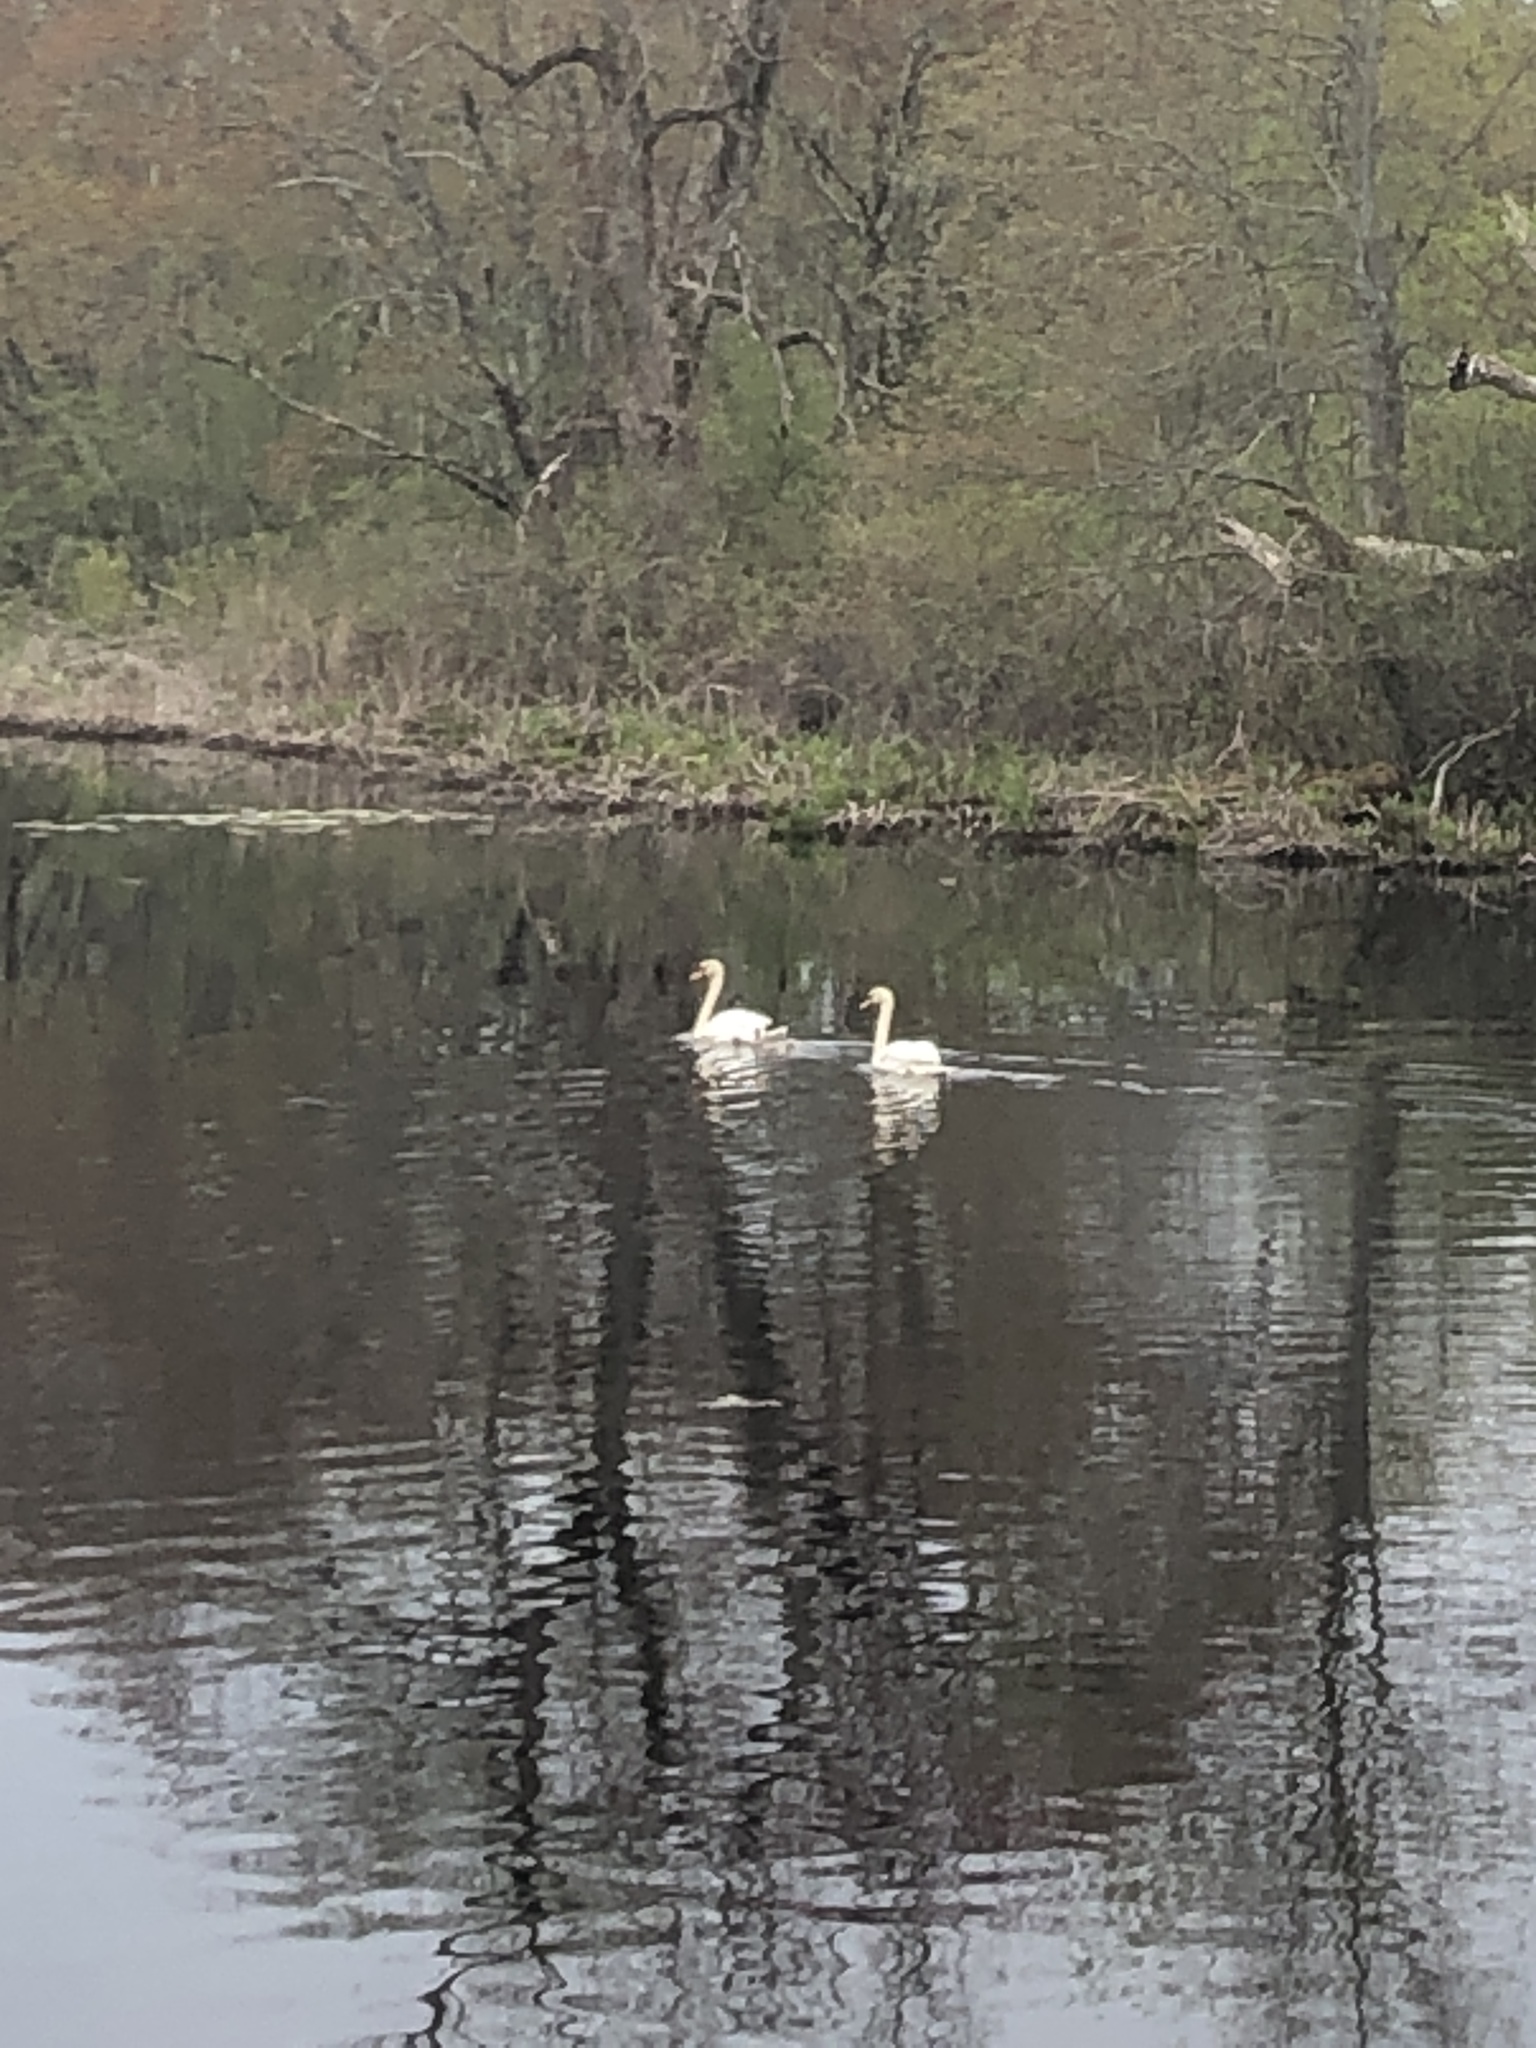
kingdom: Animalia
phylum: Chordata
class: Aves
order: Anseriformes
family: Anatidae
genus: Cygnus
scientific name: Cygnus olor
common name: Mute swan
